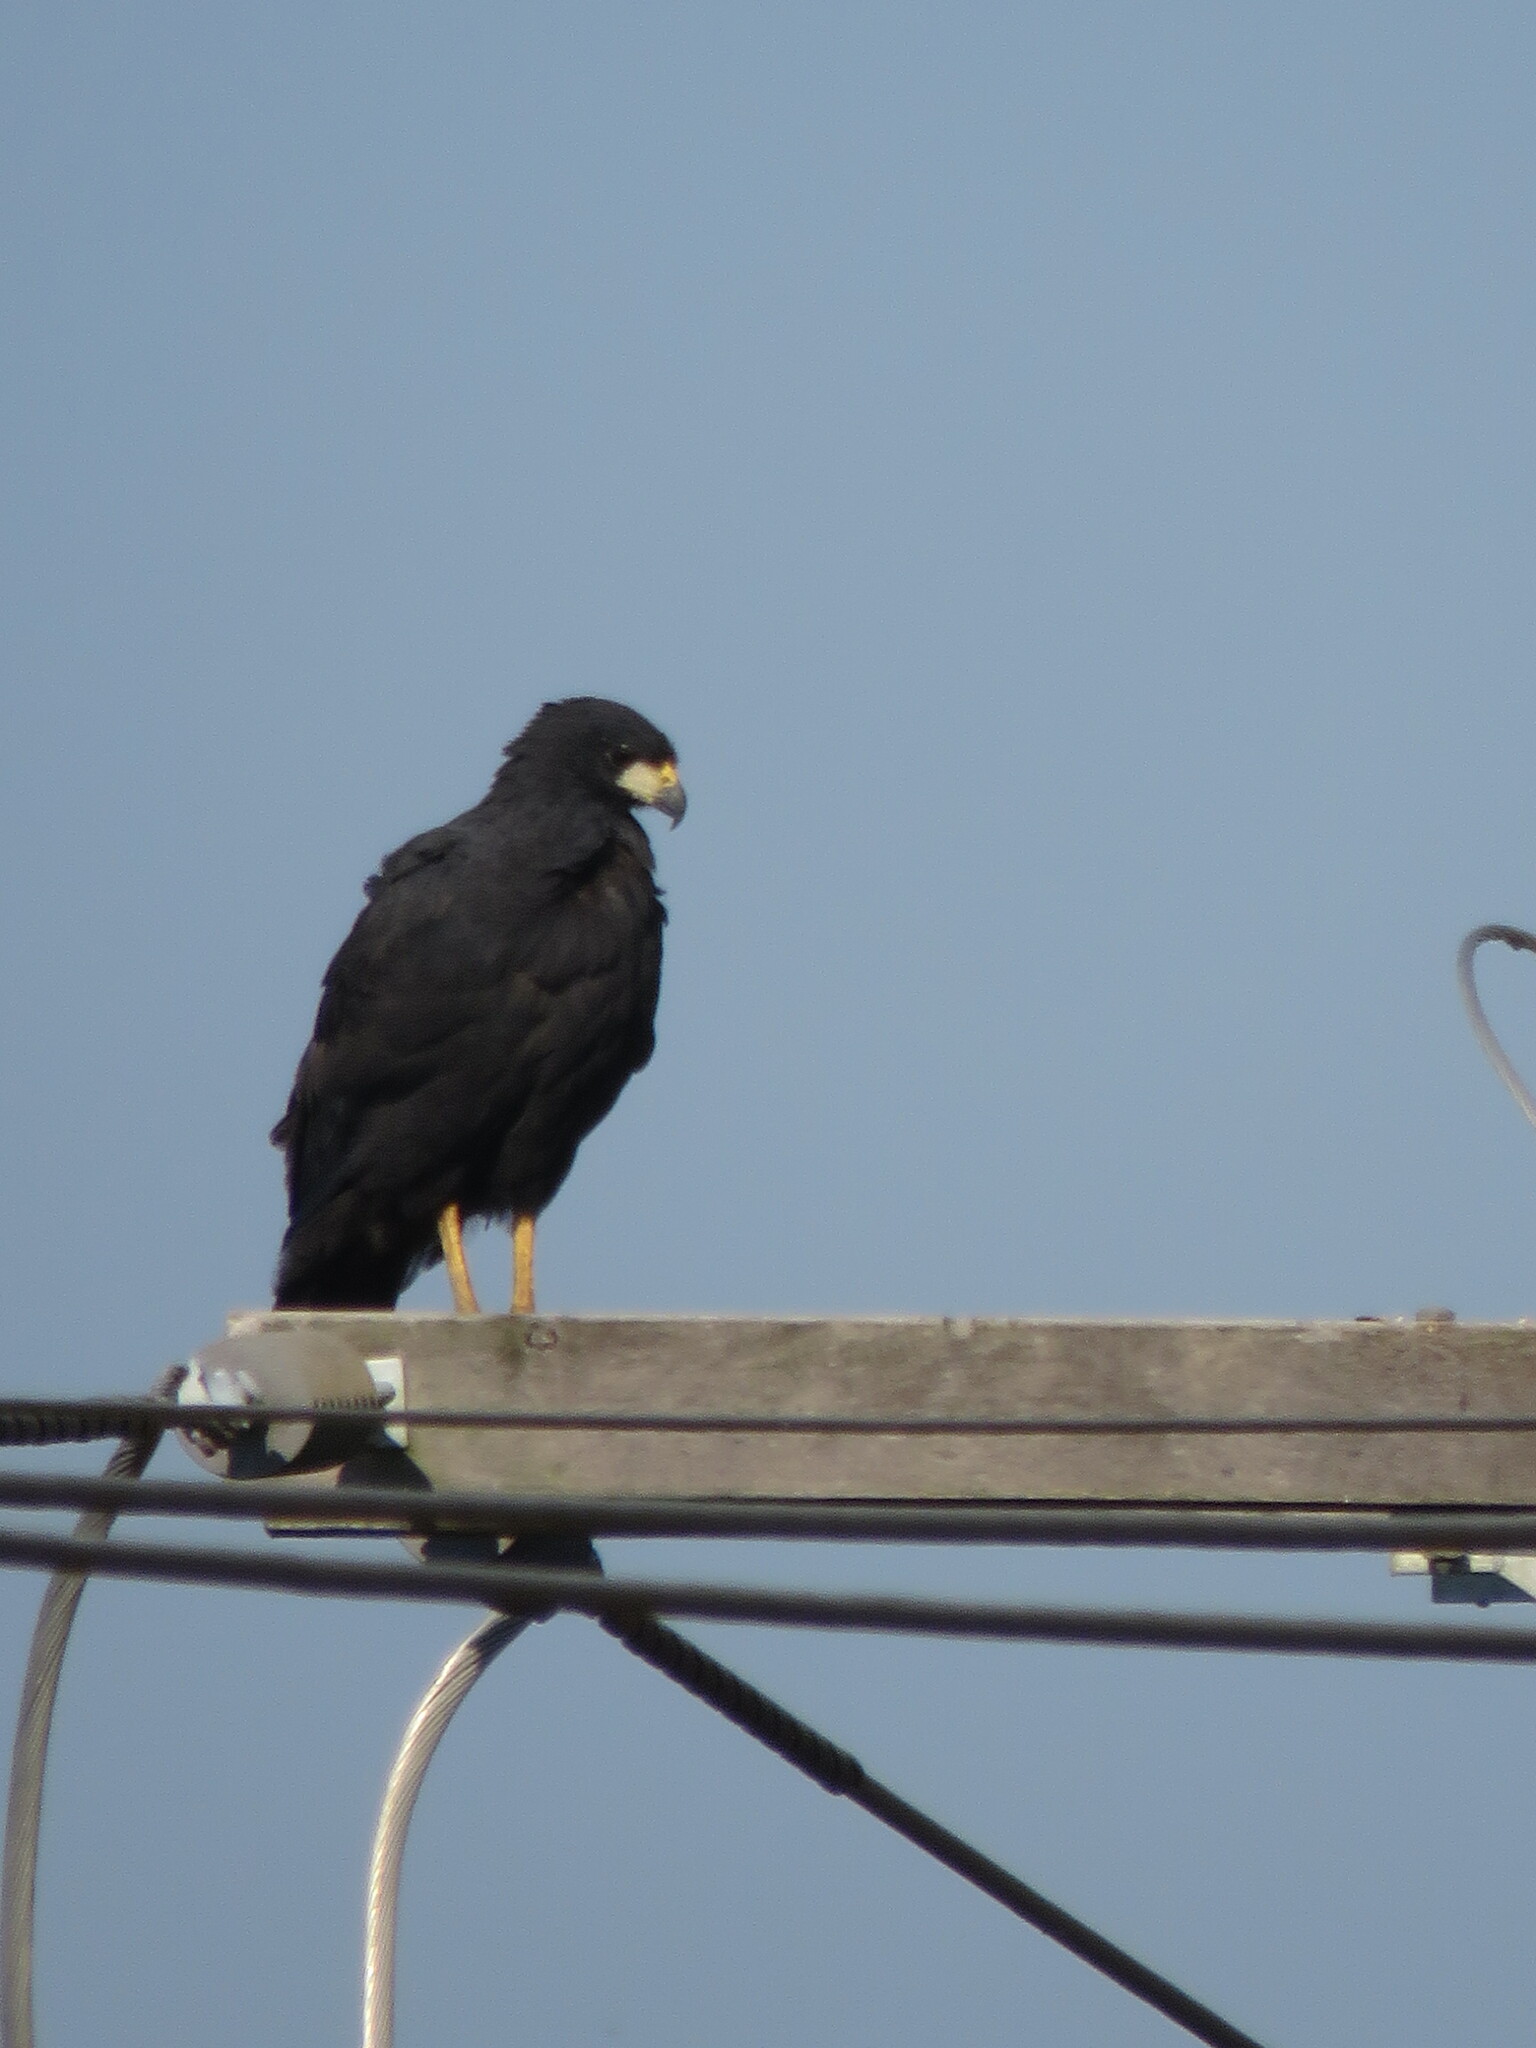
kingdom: Animalia
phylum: Chordata
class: Aves
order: Accipitriformes
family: Accipitridae
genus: Buteogallus
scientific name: Buteogallus urubitinga
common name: Great black hawk
